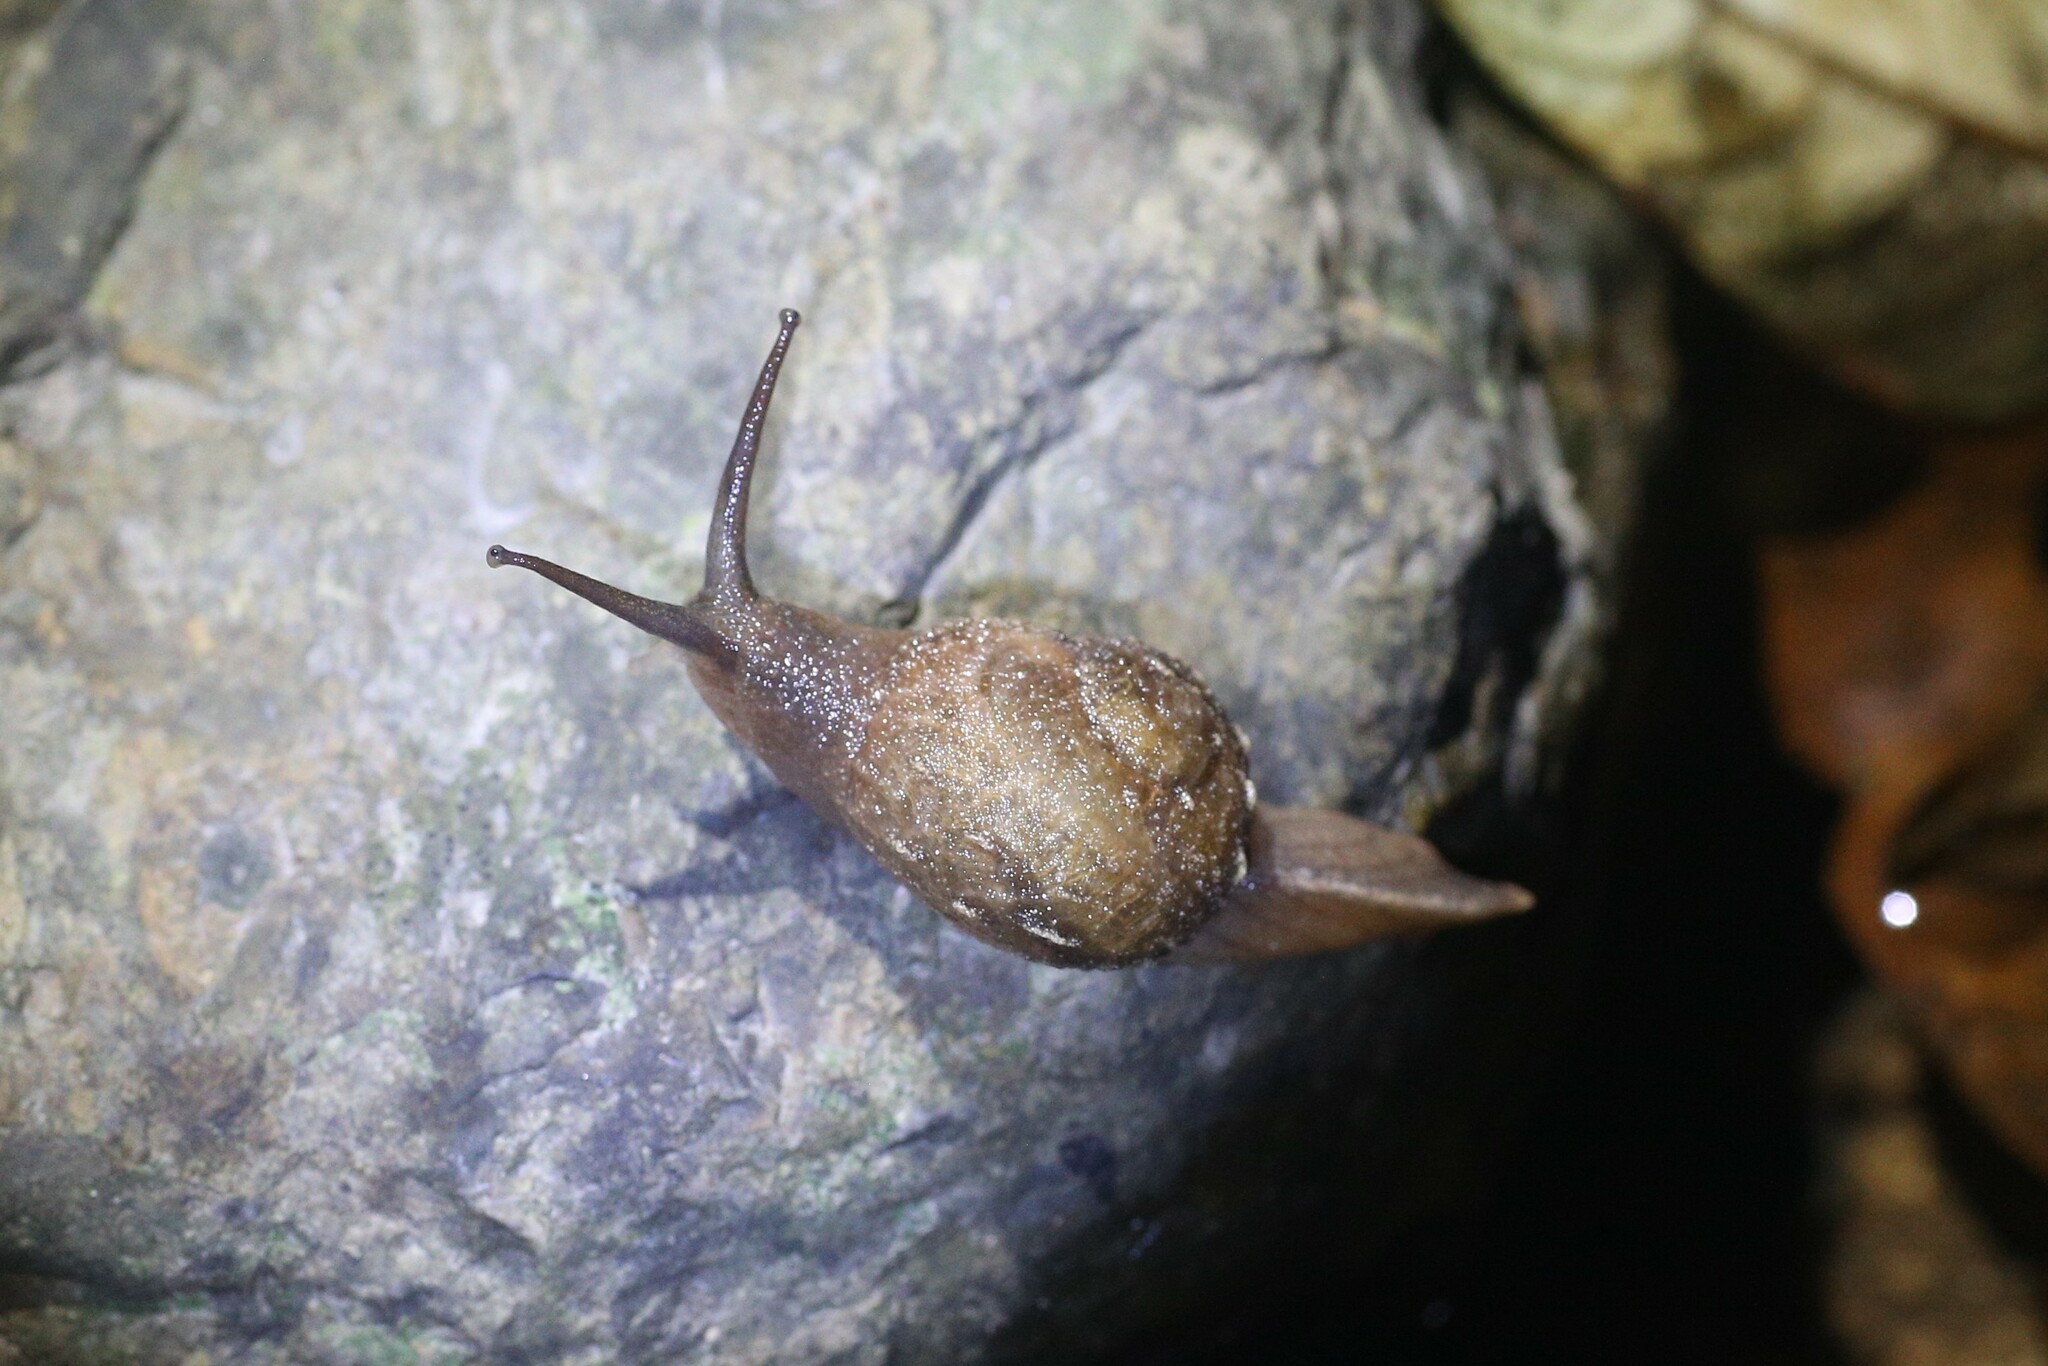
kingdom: Animalia
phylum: Mollusca
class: Gastropoda
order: Stylommatophora
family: Helicarionidae
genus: Fastosarion
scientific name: Fastosarion brazieri
